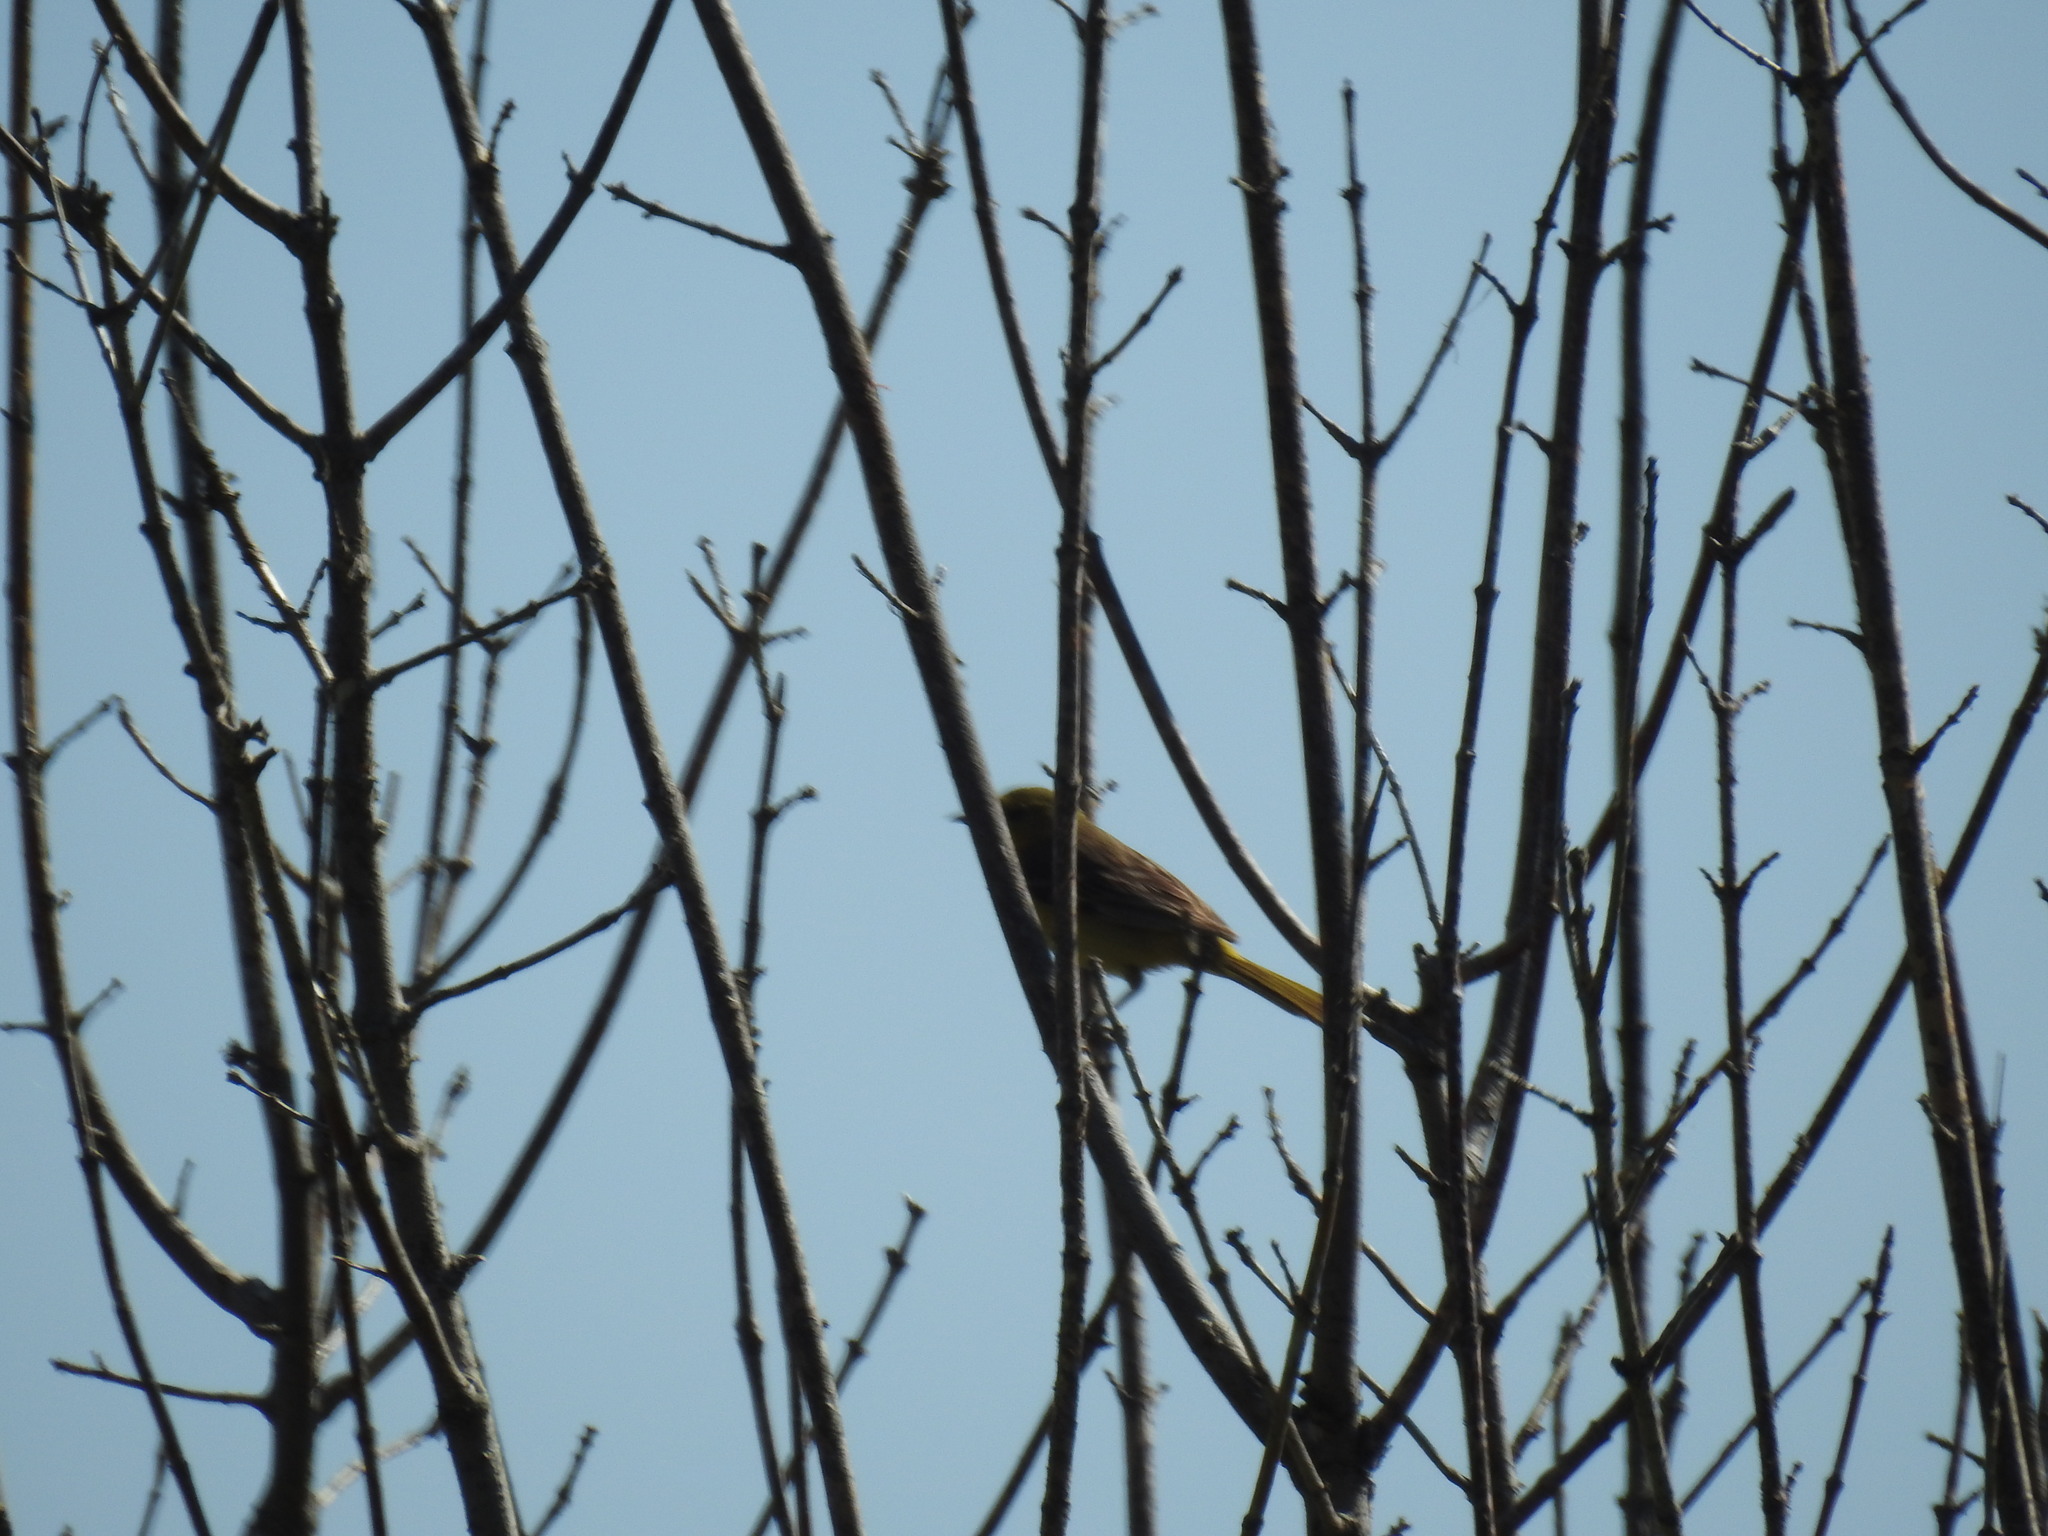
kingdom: Animalia
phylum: Chordata
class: Aves
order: Passeriformes
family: Icteridae
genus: Icterus
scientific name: Icterus spurius
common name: Orchard oriole
